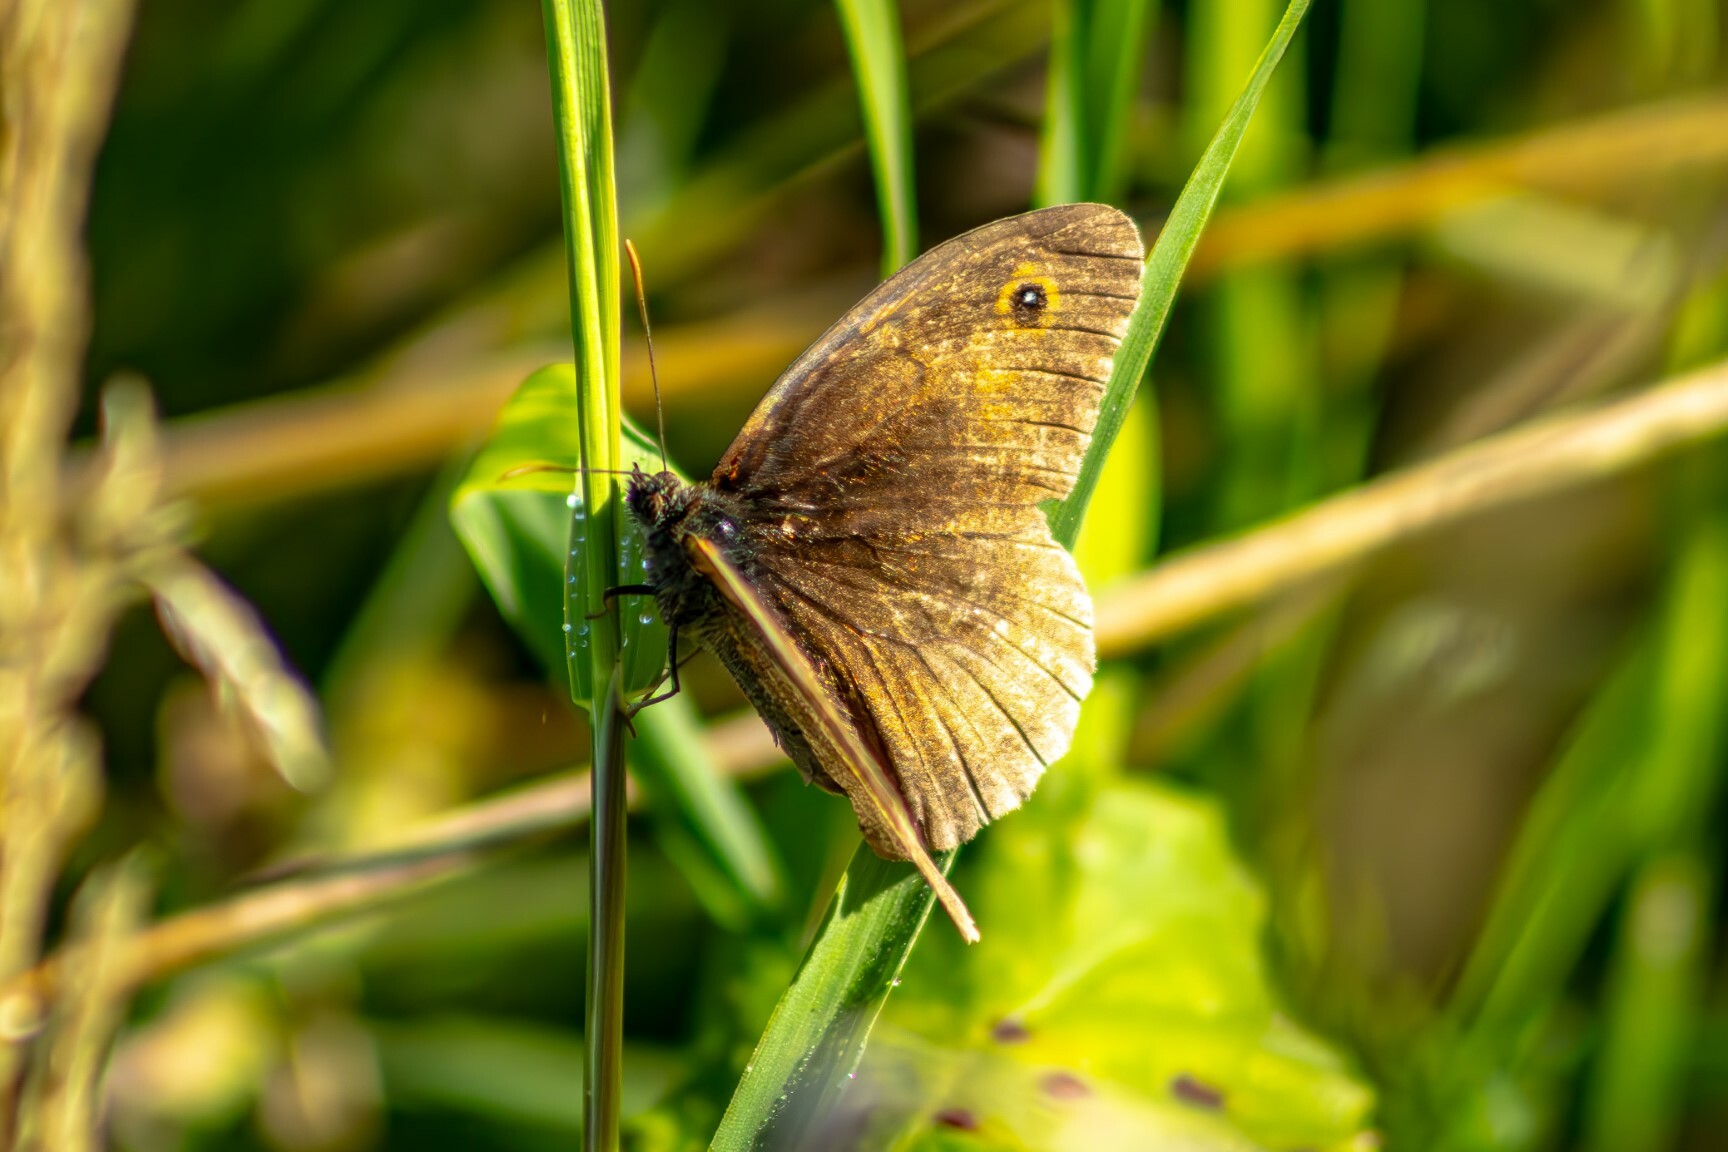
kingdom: Animalia
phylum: Arthropoda
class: Insecta
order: Lepidoptera
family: Nymphalidae
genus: Maniola
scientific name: Maniola jurtina
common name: Meadow brown
